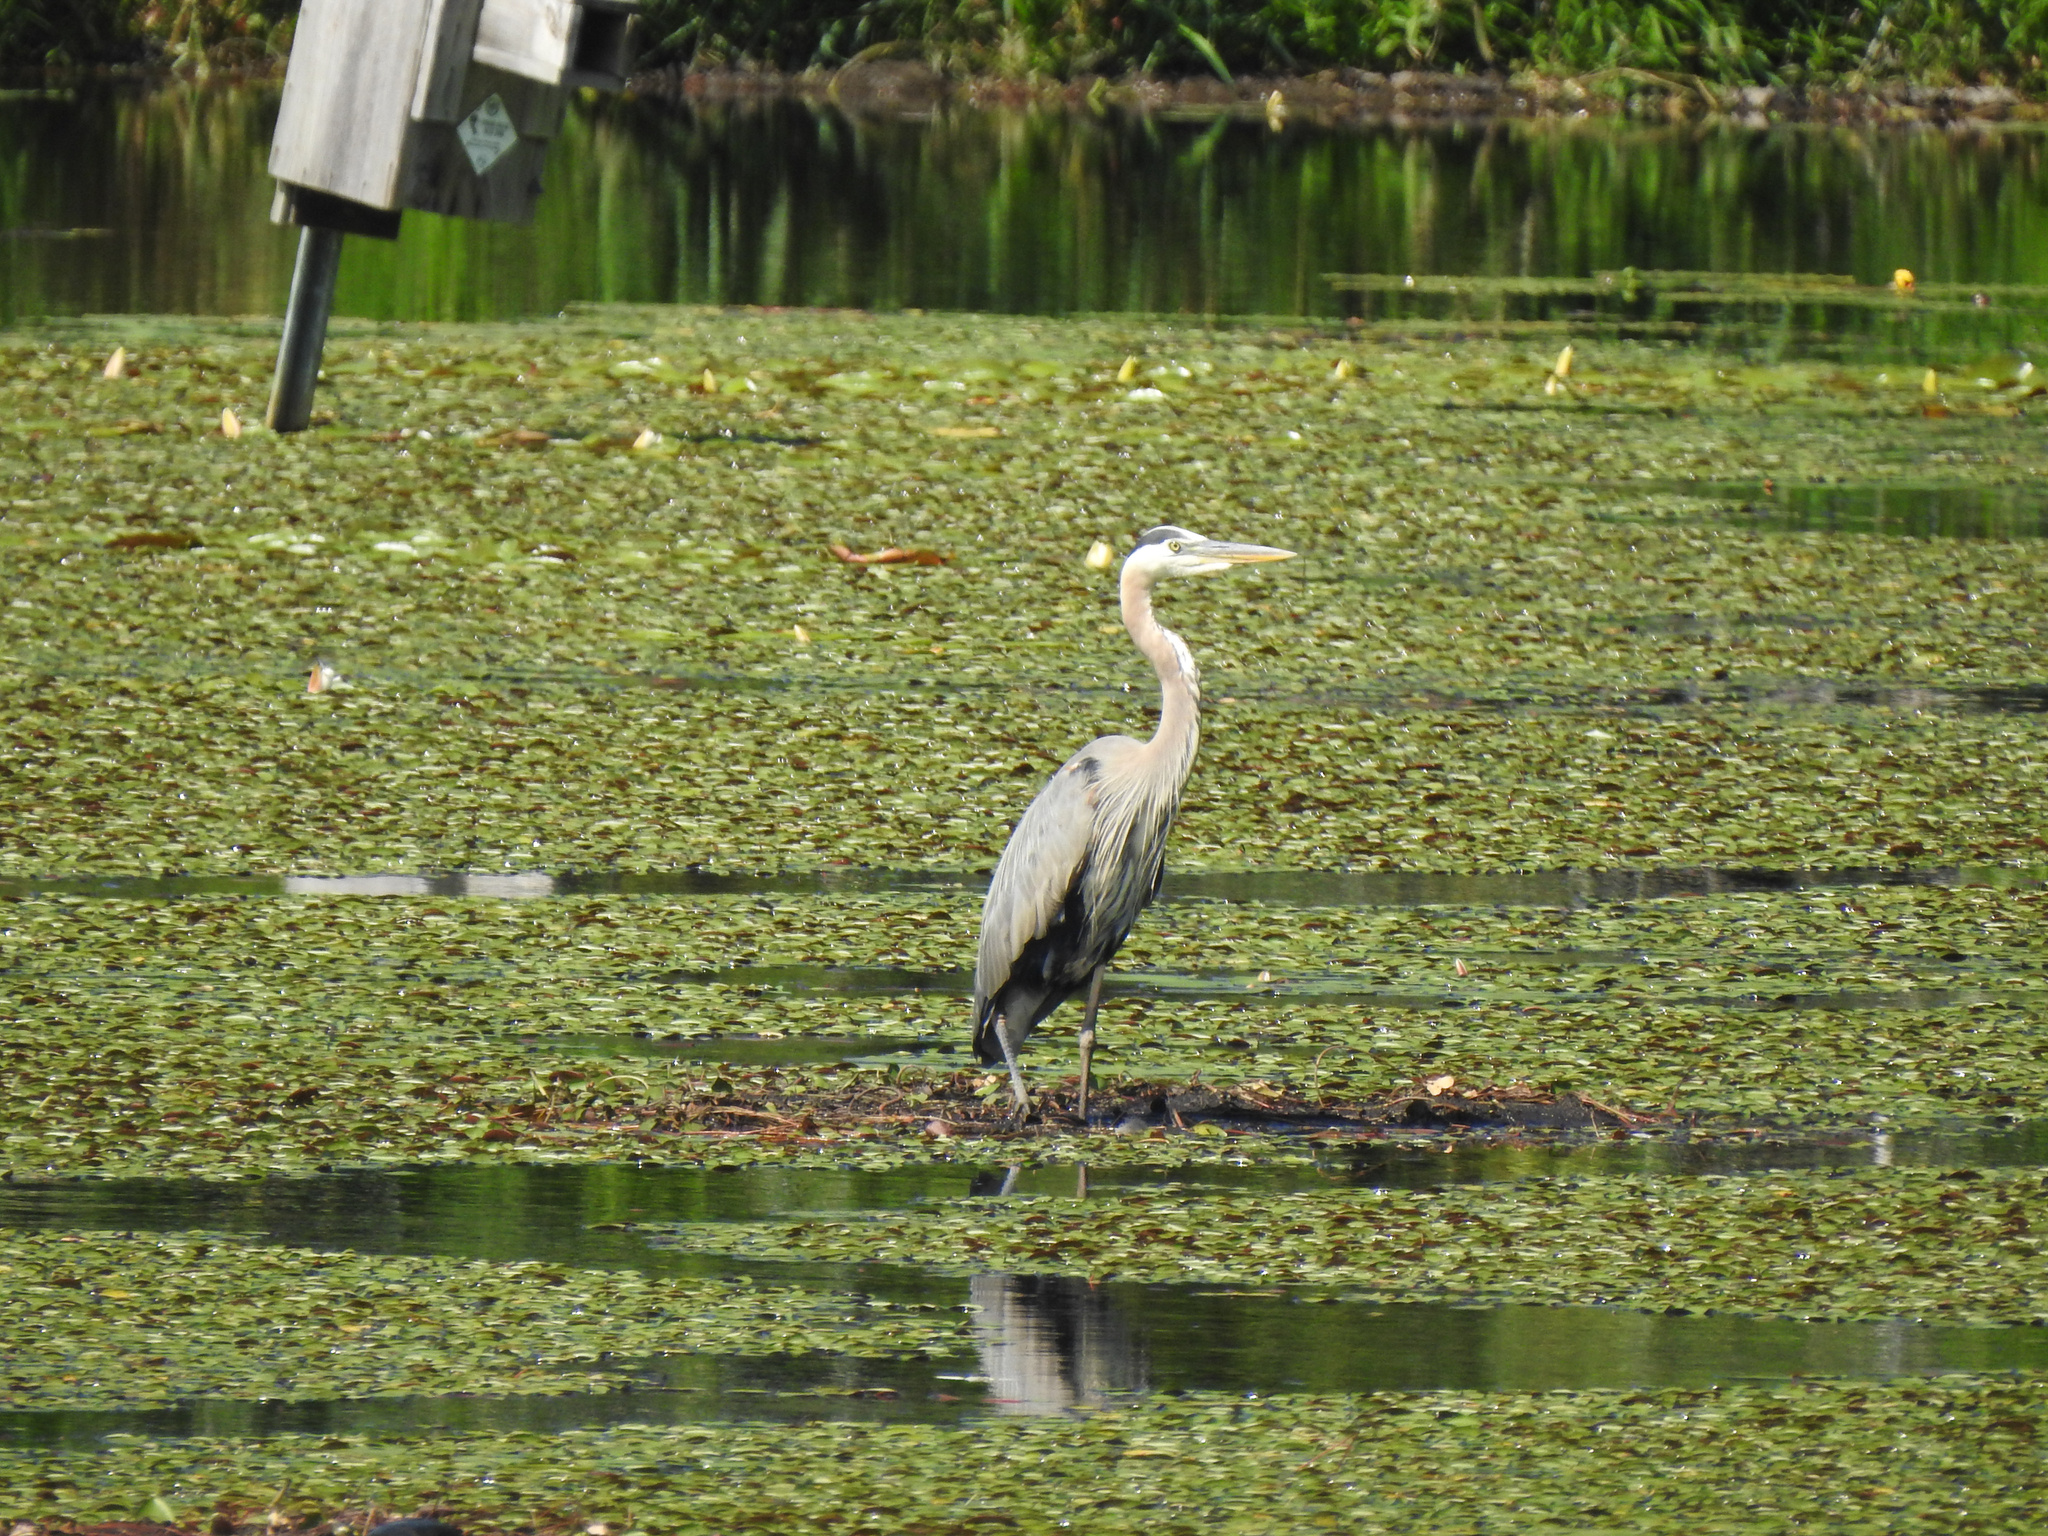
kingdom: Animalia
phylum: Chordata
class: Aves
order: Pelecaniformes
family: Ardeidae
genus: Ardea
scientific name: Ardea herodias
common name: Great blue heron
